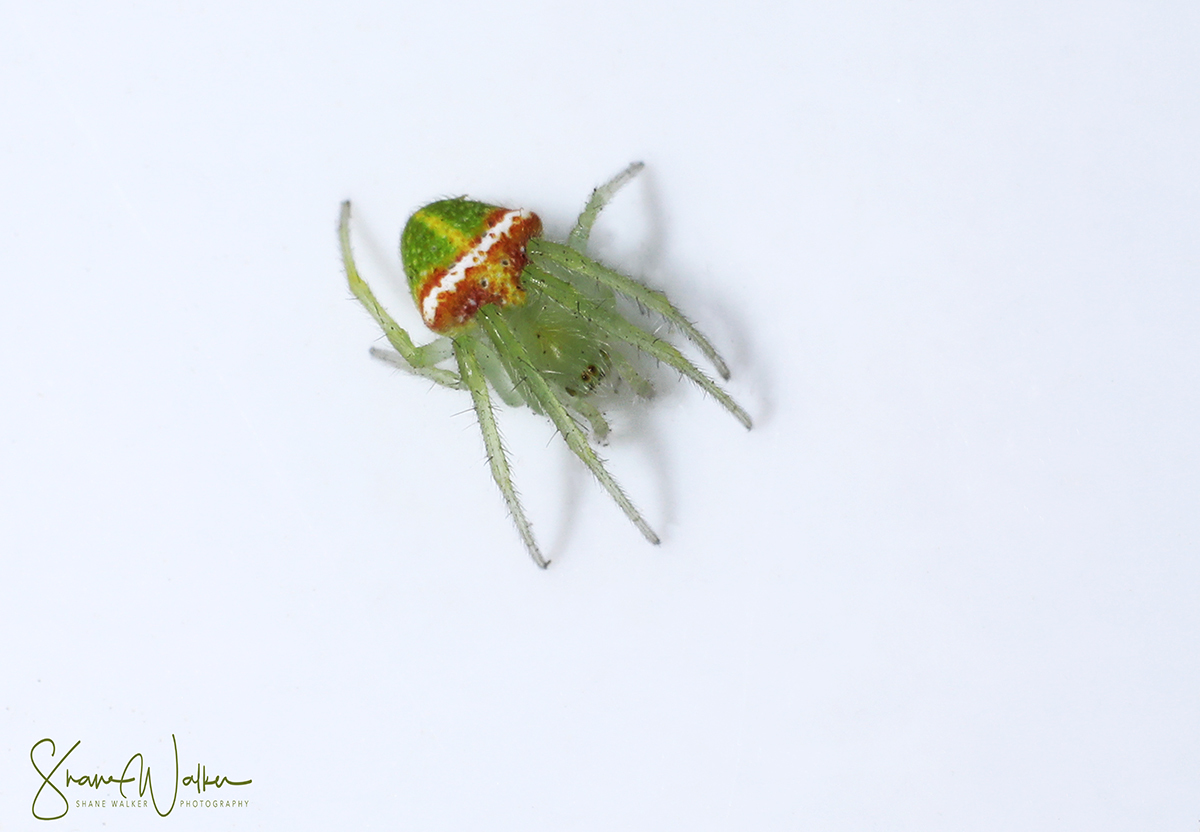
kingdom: Animalia
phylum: Arthropoda
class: Arachnida
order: Araneae
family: Araneidae
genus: Araneus
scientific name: Araneus circulissparsus
